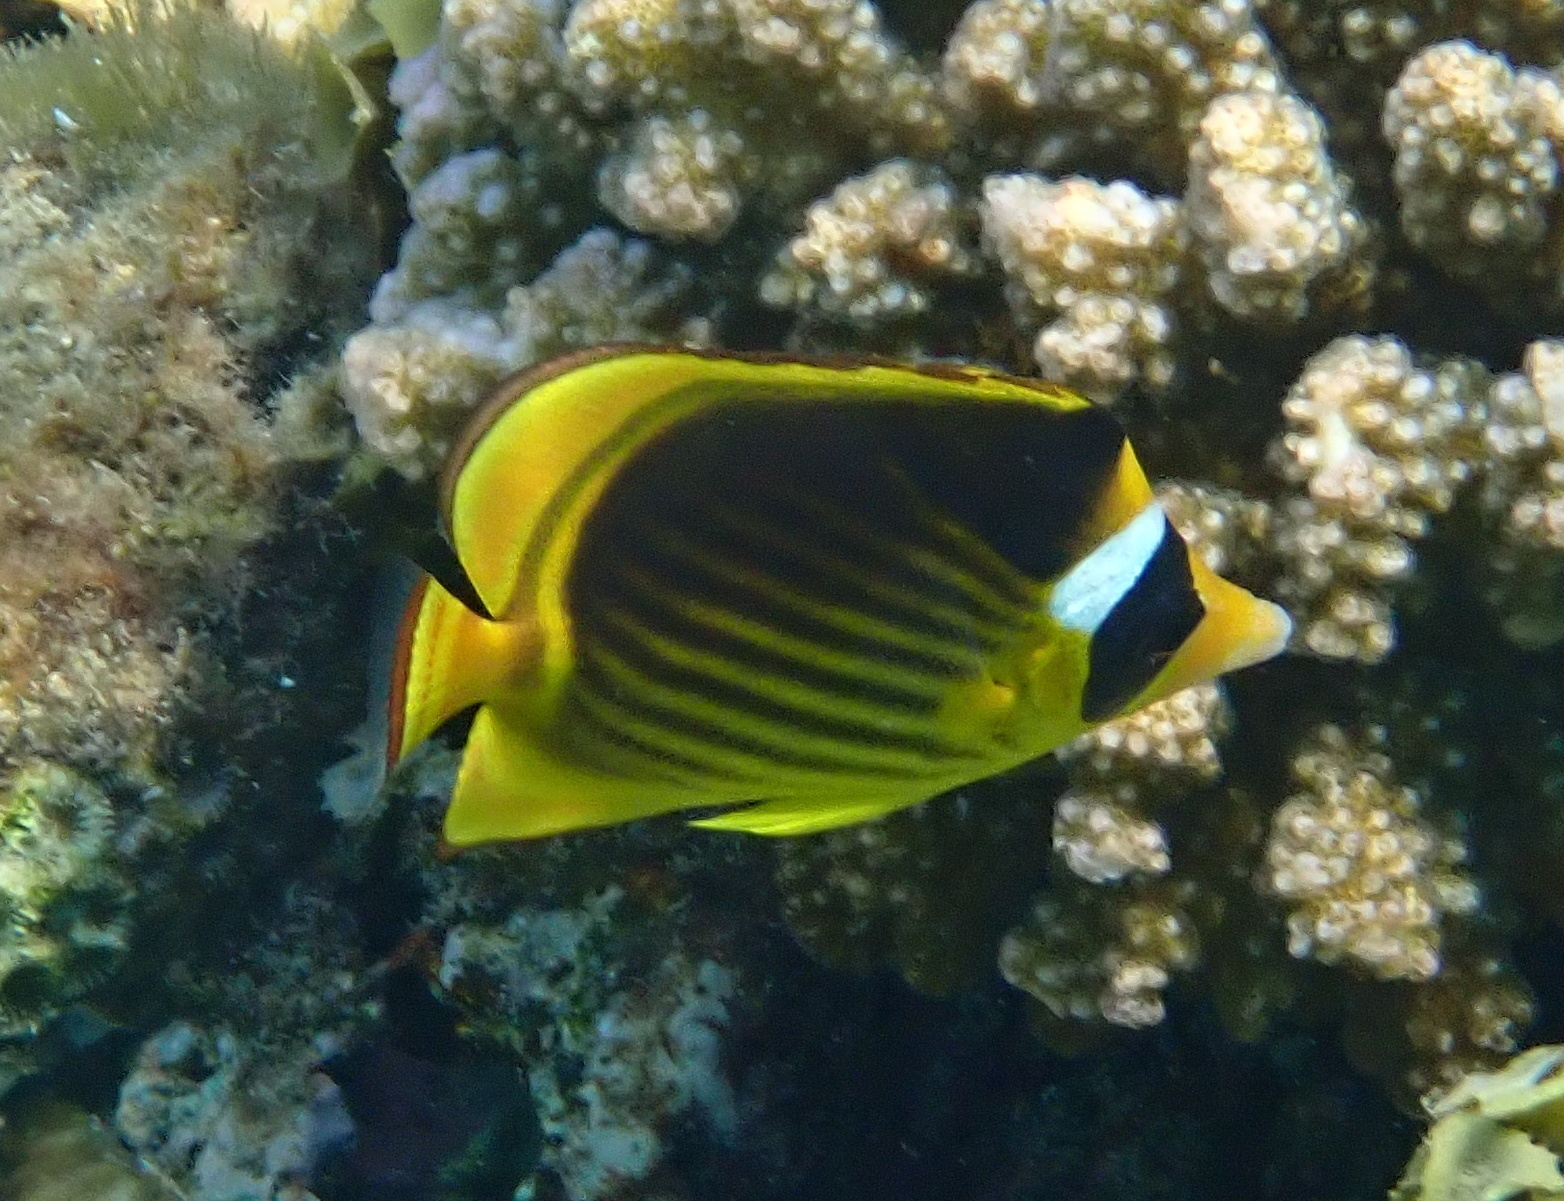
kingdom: Animalia
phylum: Chordata
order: Perciformes
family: Chaetodontidae
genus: Chaetodon
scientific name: Chaetodon fasciatus
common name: Diagonal butterflyfish
